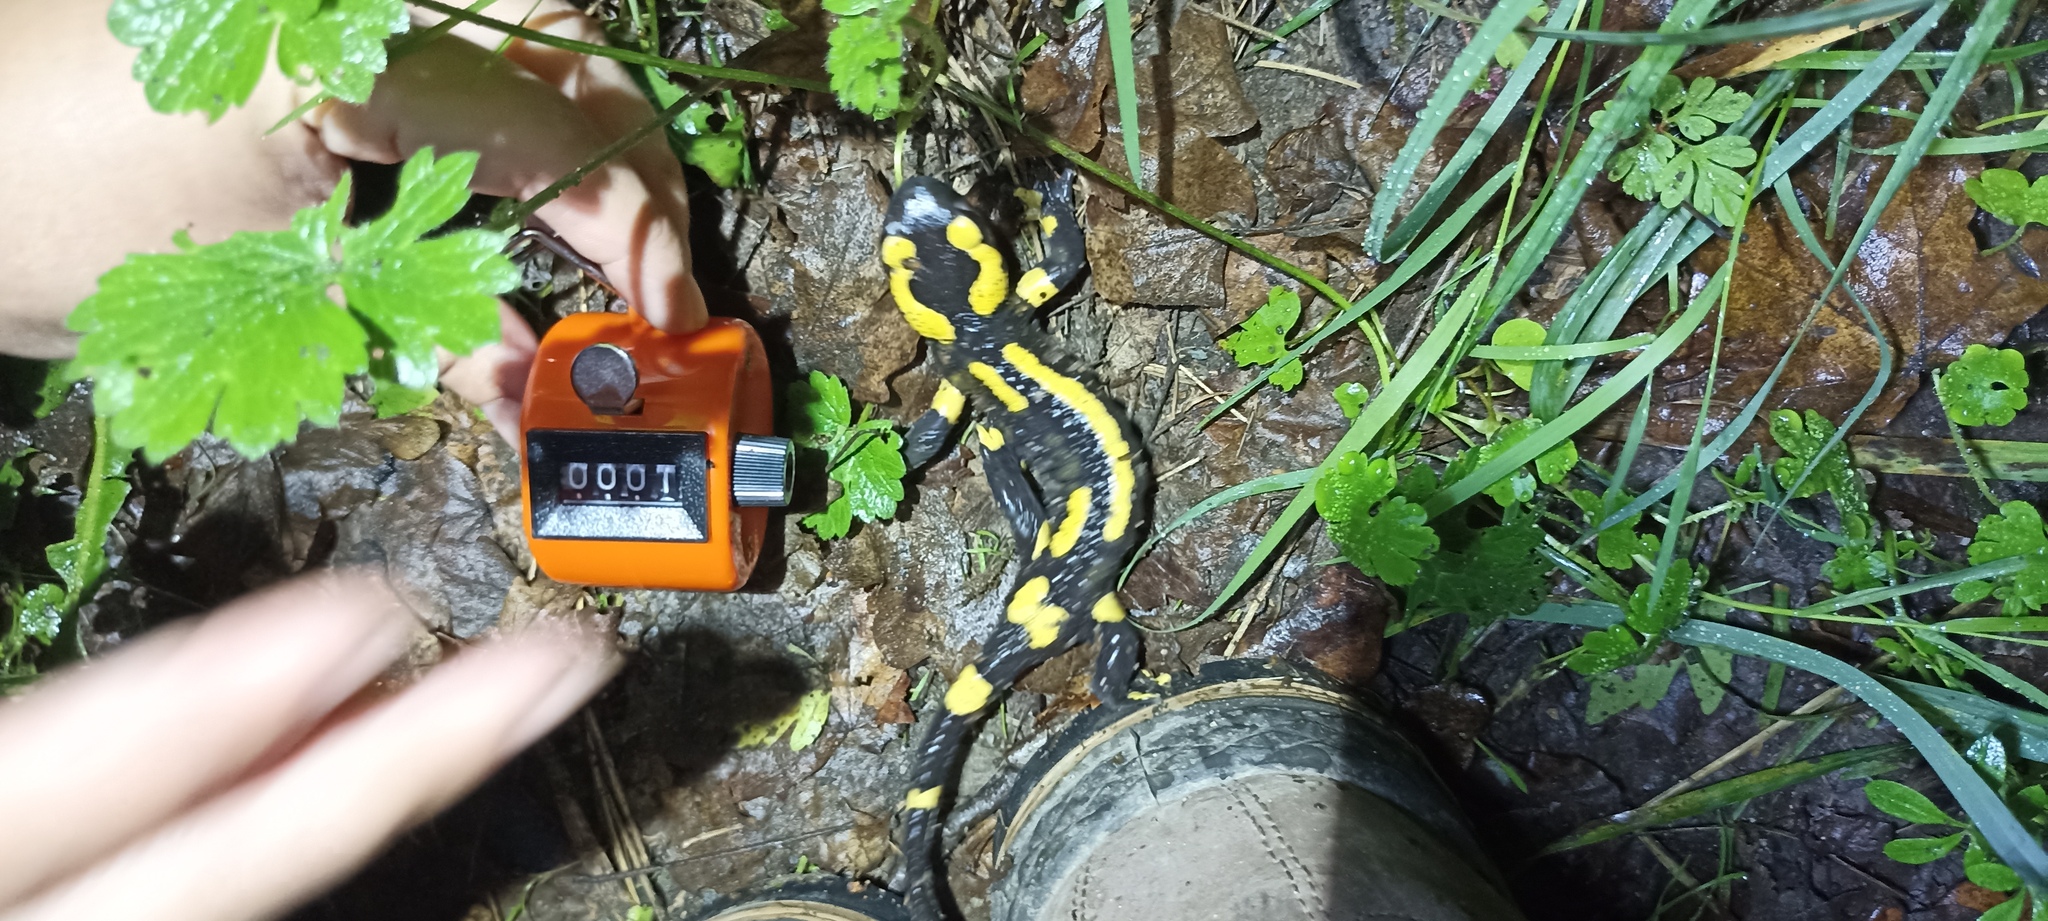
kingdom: Animalia
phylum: Chordata
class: Amphibia
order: Caudata
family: Salamandridae
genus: Salamandra
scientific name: Salamandra salamandra
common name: Fire salamander
